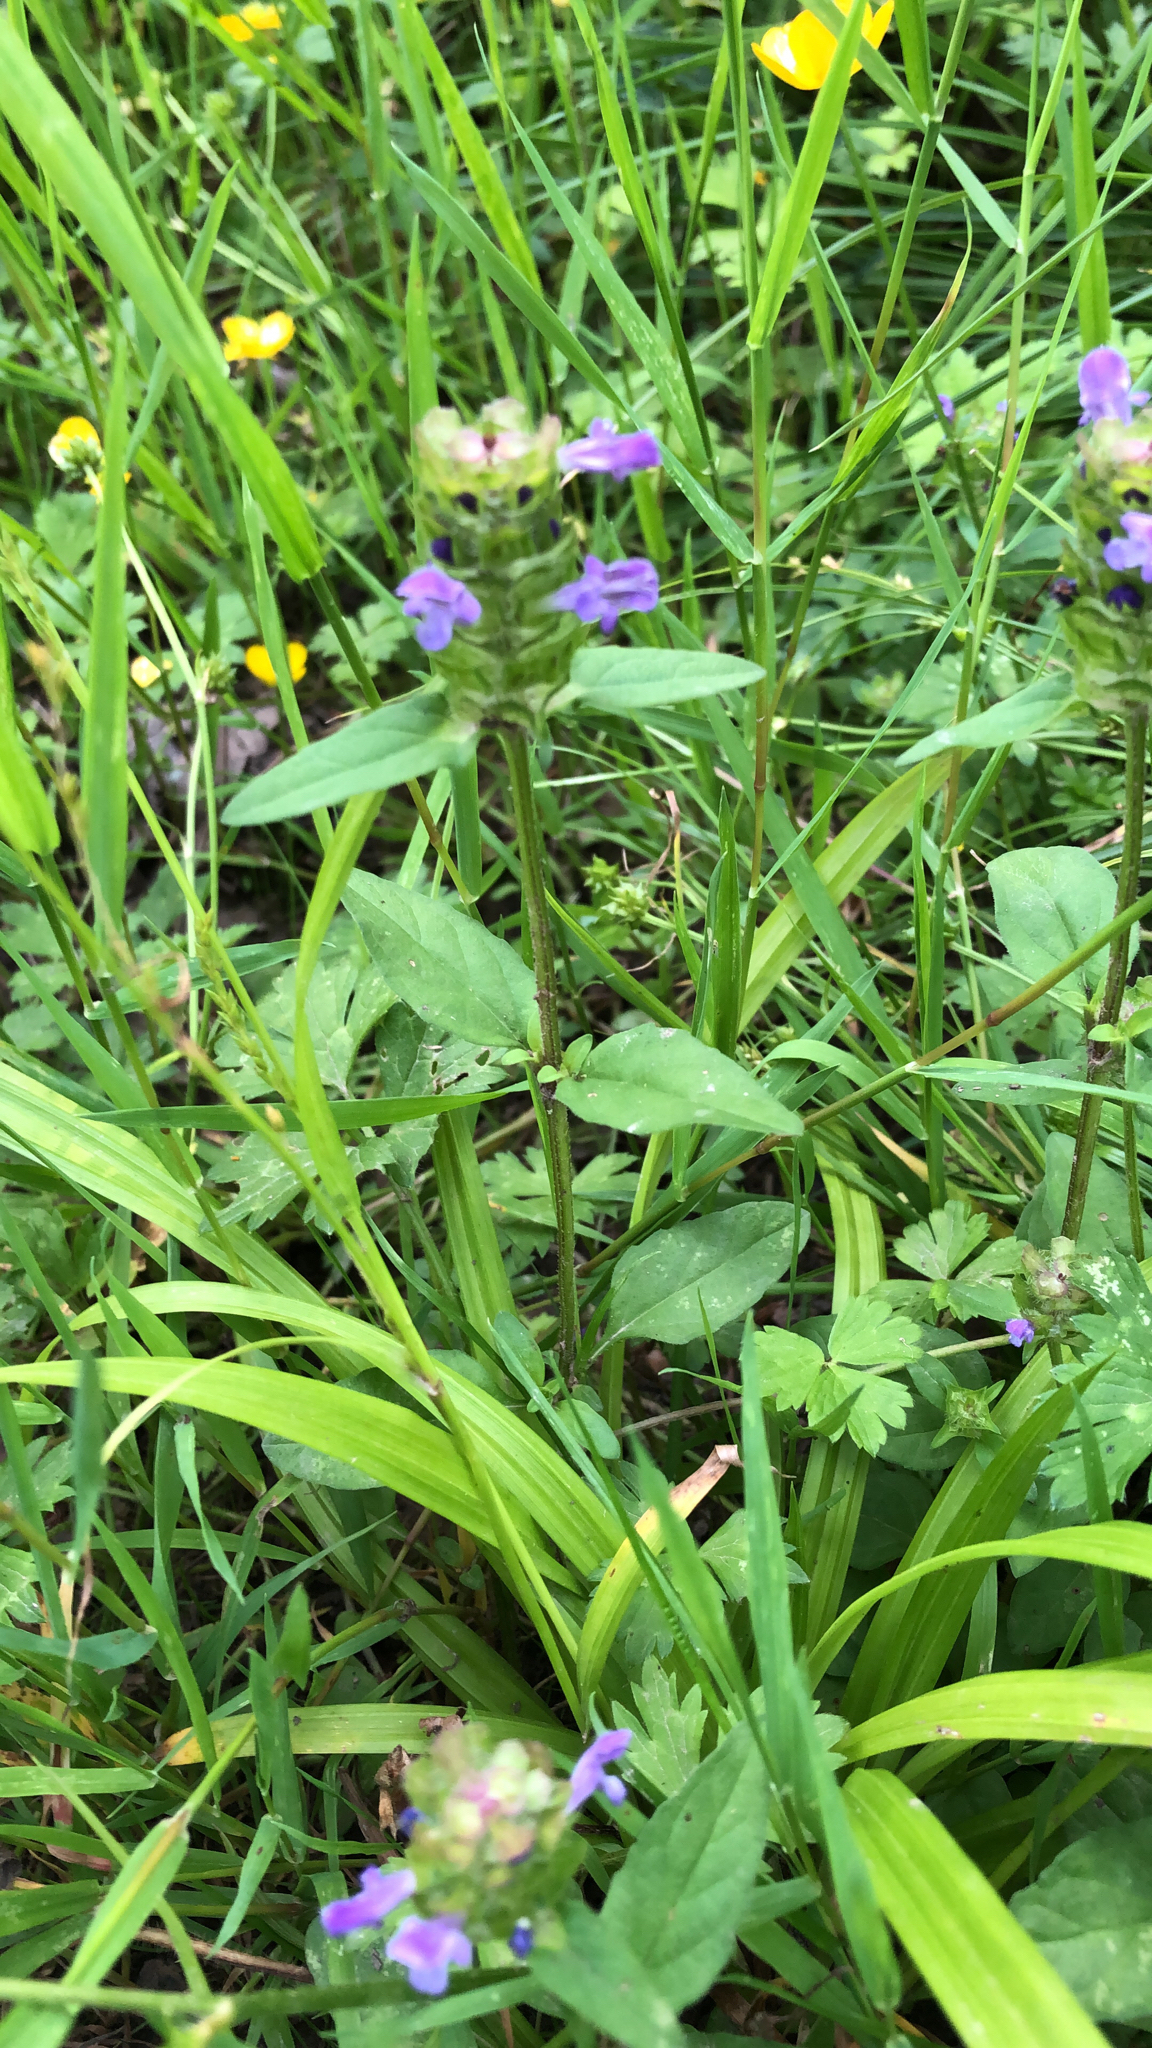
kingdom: Plantae
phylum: Tracheophyta
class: Magnoliopsida
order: Lamiales
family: Lamiaceae
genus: Prunella
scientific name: Prunella vulgaris
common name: Heal-all
